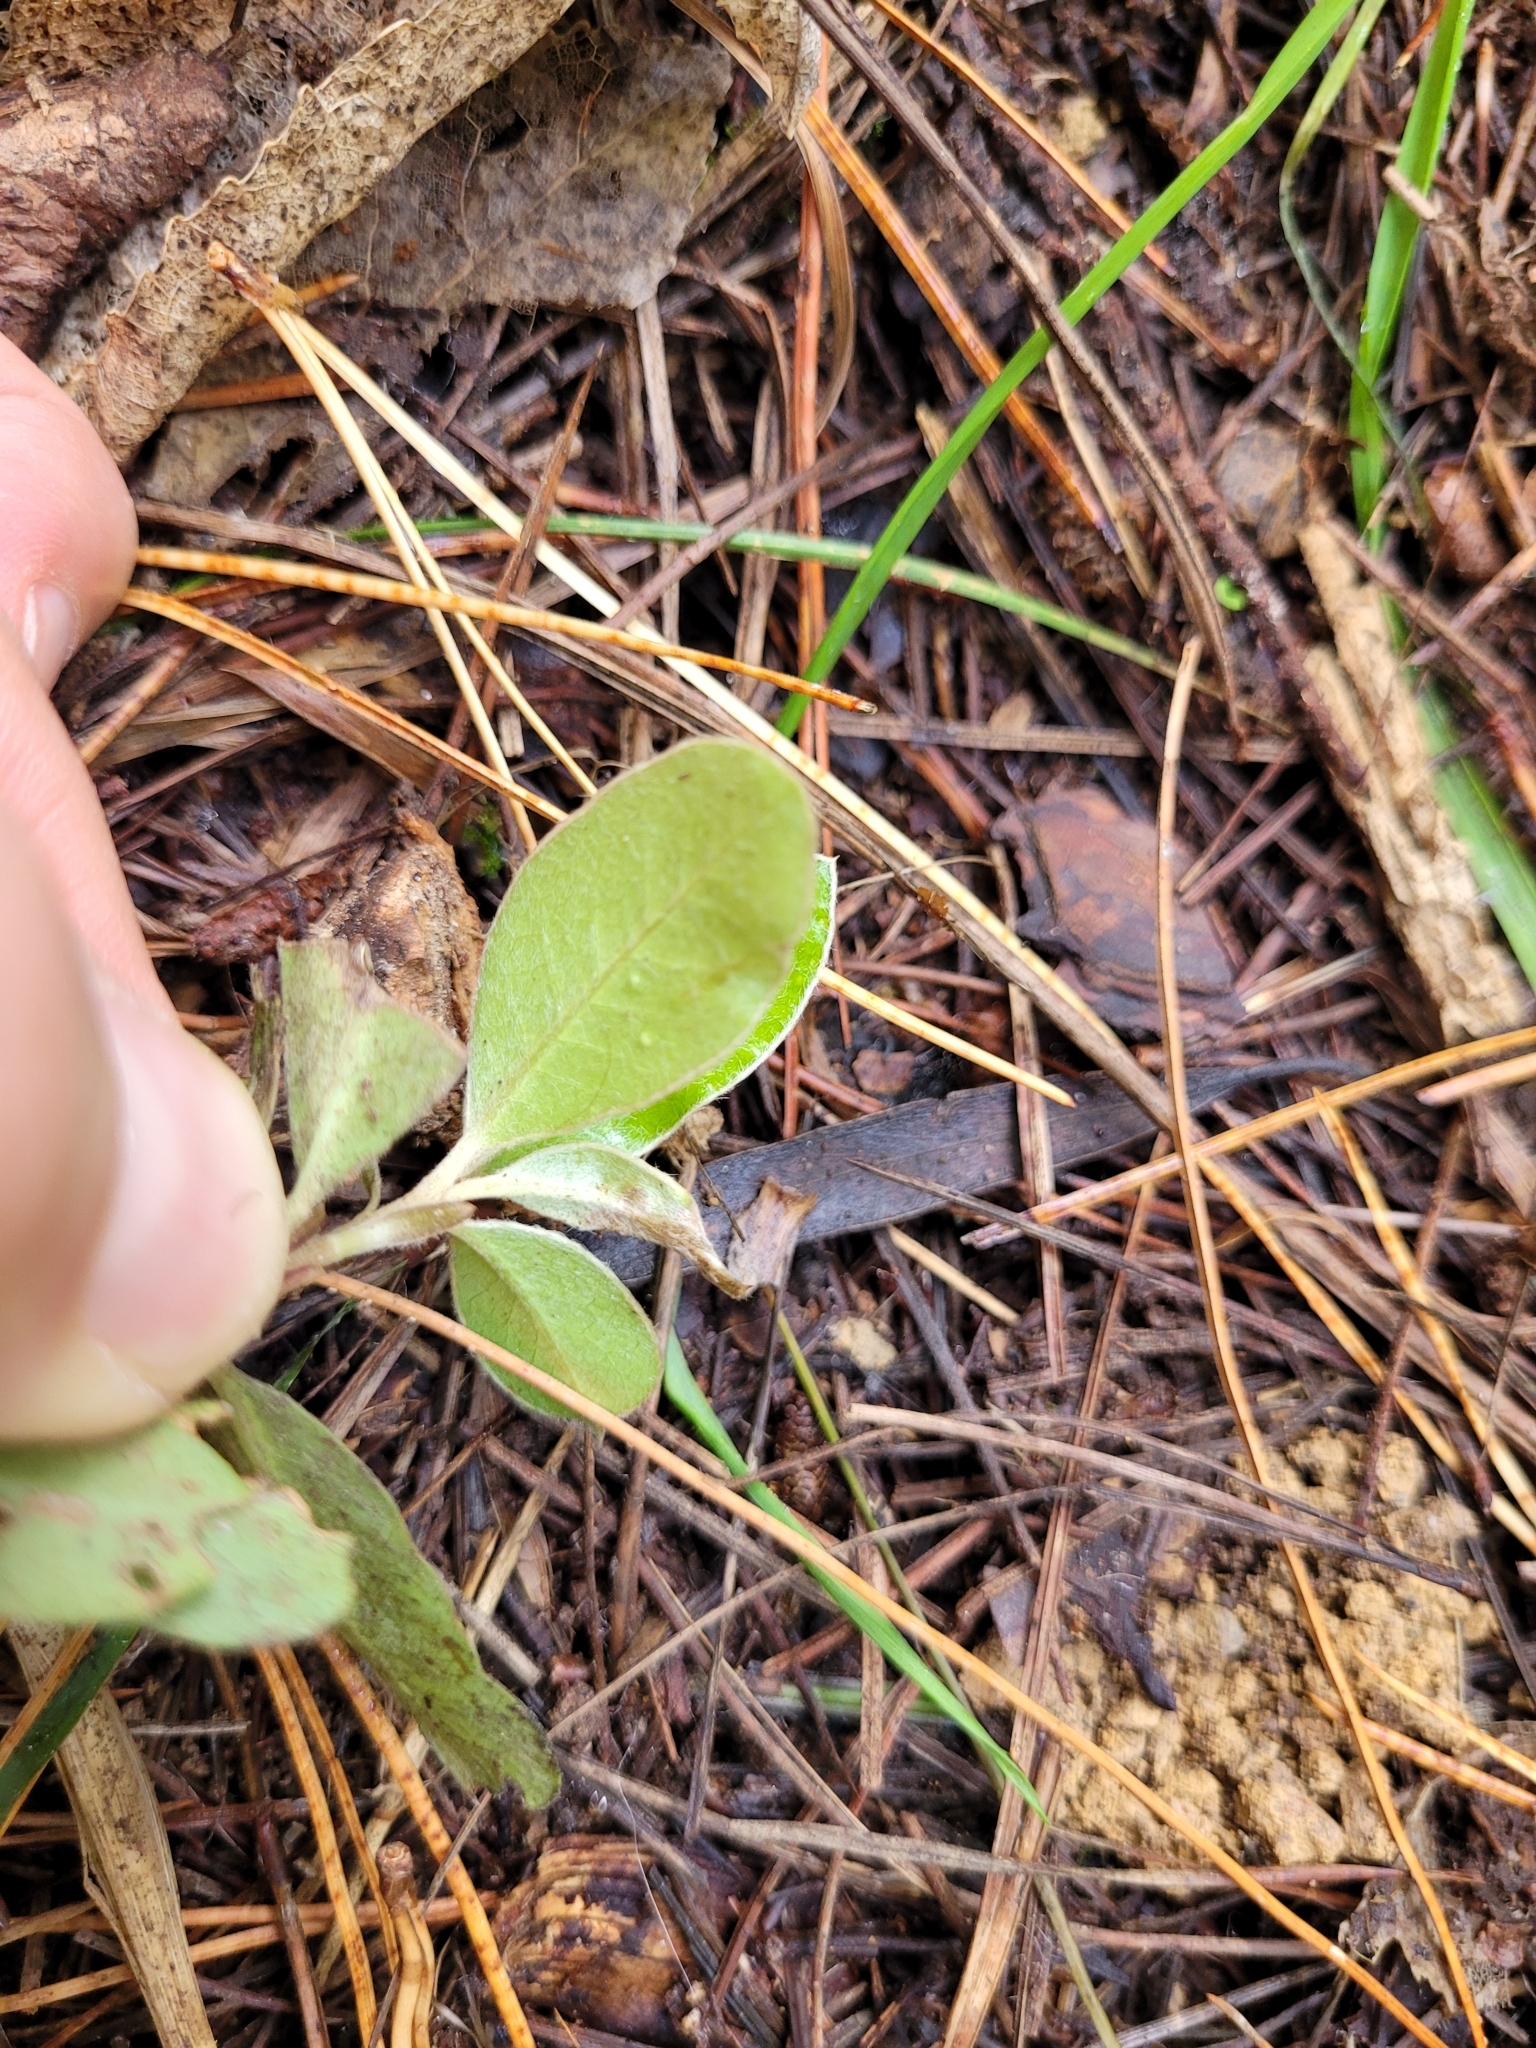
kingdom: Plantae
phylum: Tracheophyta
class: Magnoliopsida
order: Apiales
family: Pittosporaceae
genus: Pittosporum
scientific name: Pittosporum crassifolium
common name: Karo
